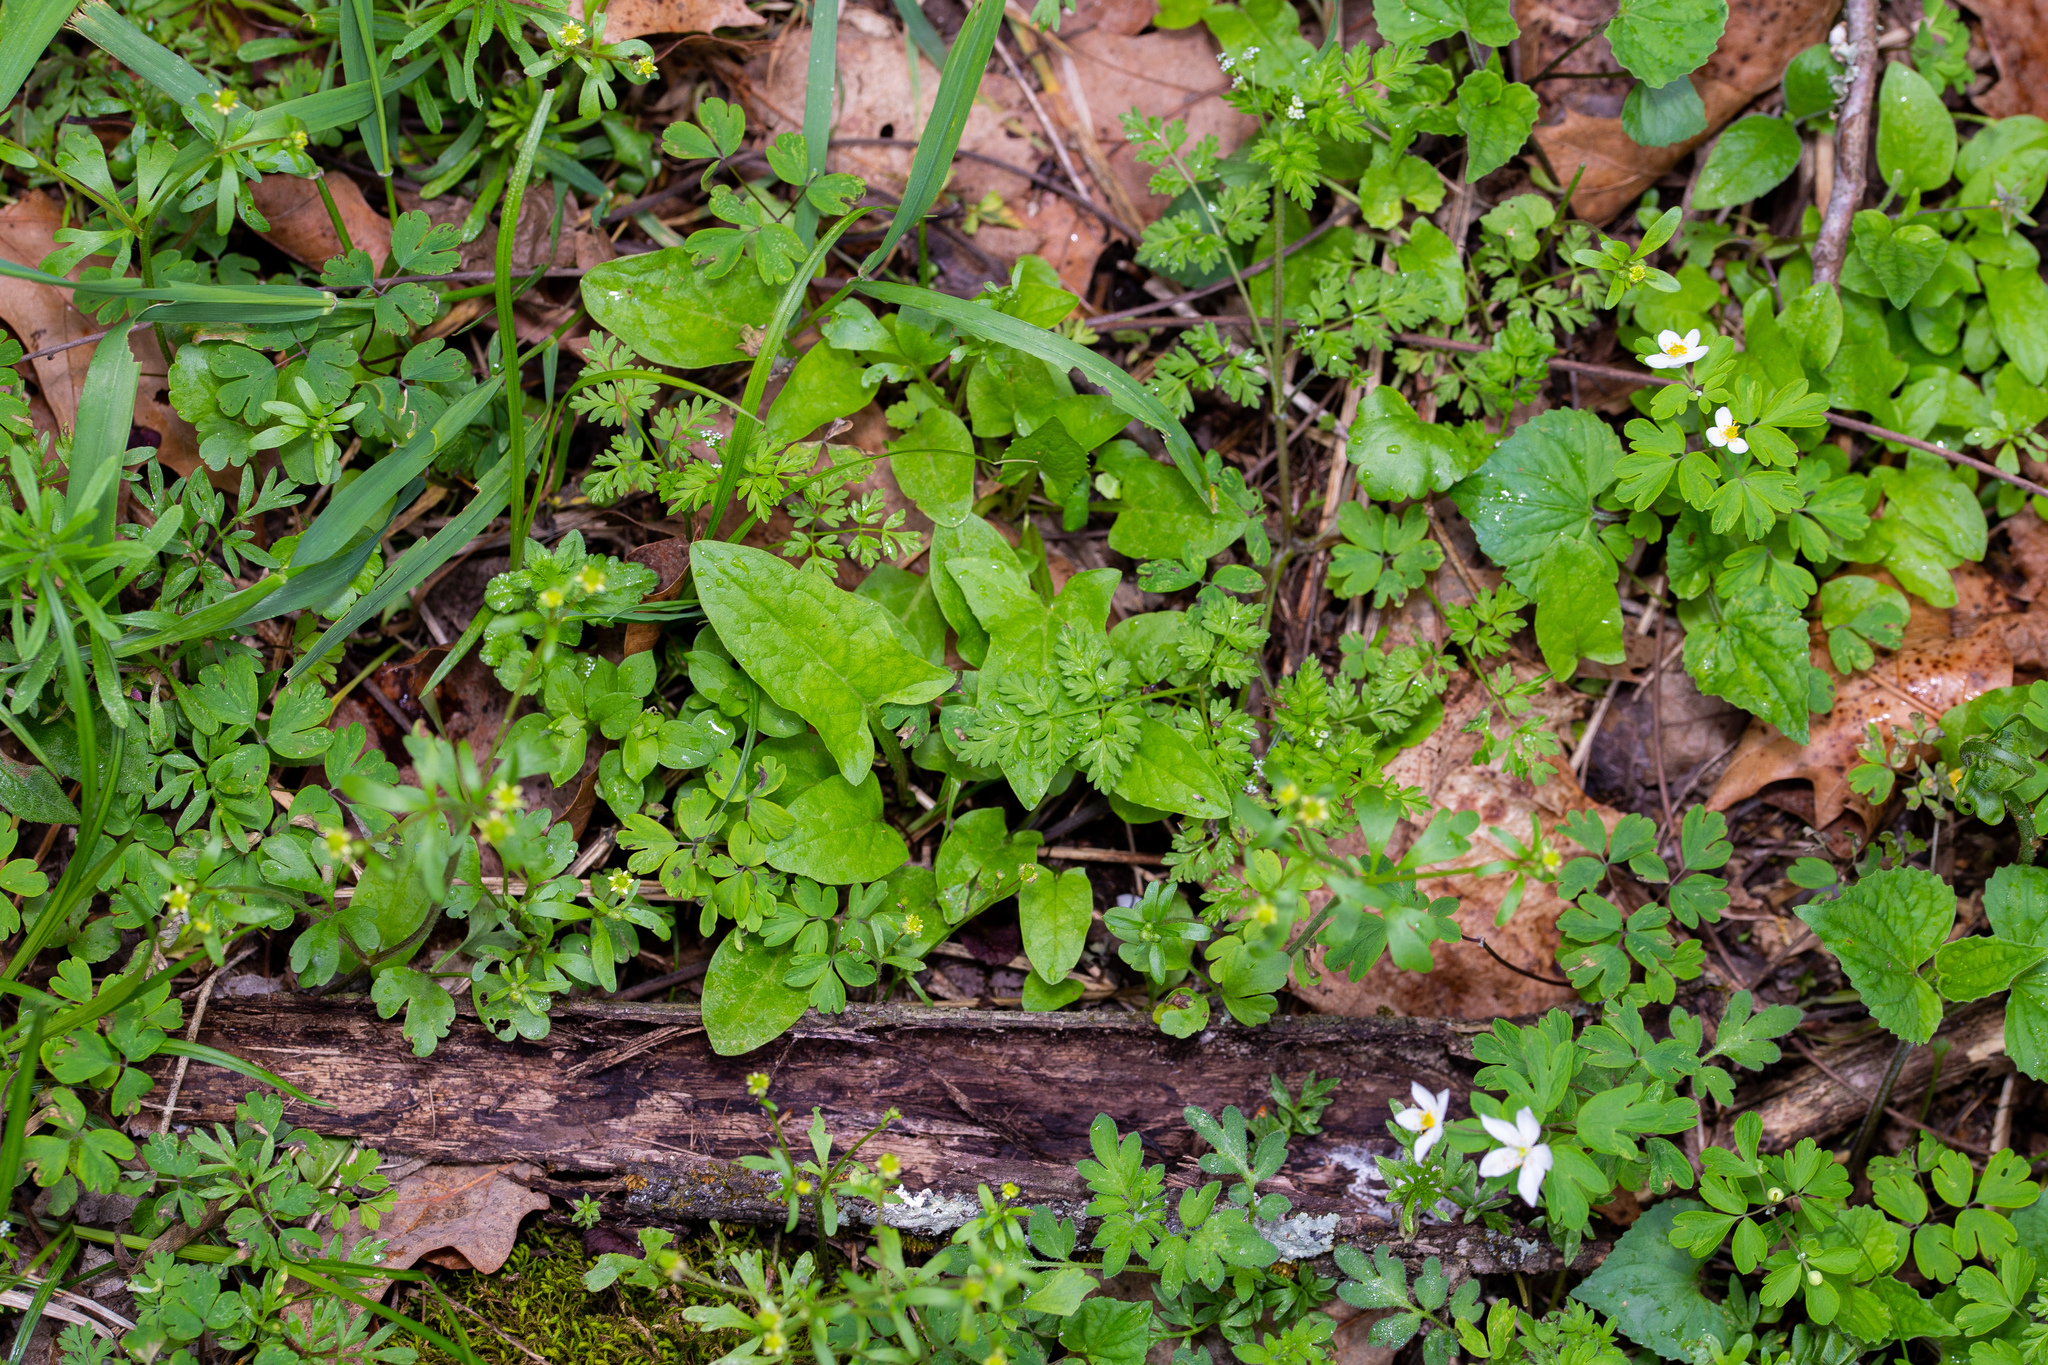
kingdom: Plantae
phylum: Tracheophyta
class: Magnoliopsida
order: Asterales
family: Asteraceae
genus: Nabalus
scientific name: Nabalus crepidineus
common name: Nodding rattlesnakeroot
